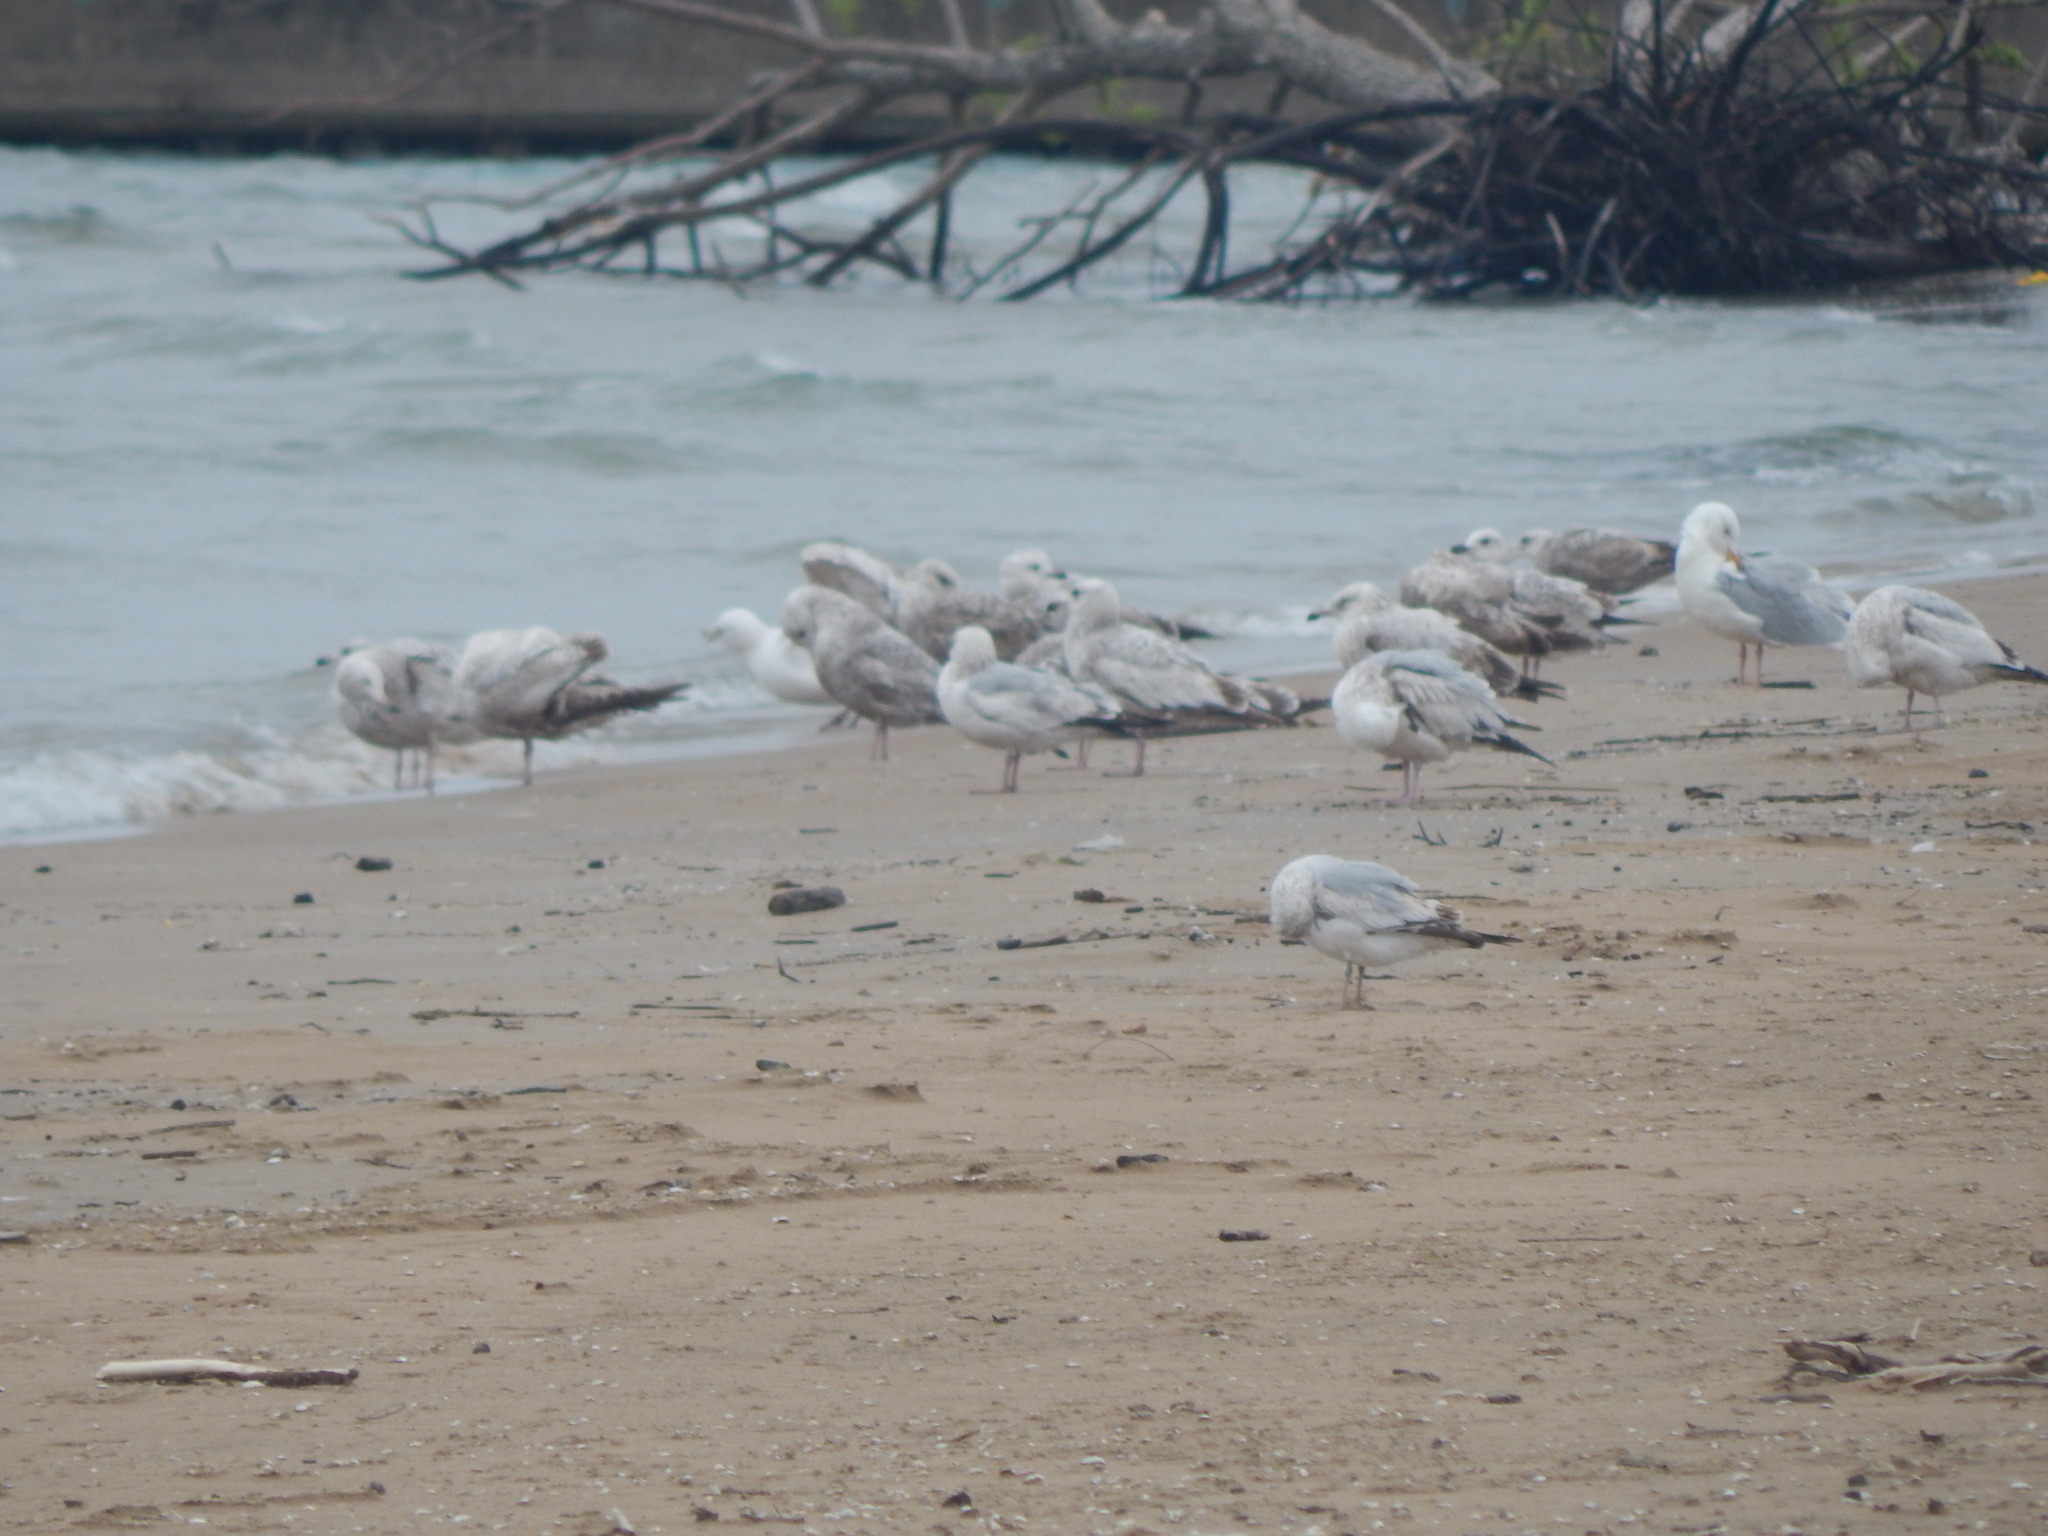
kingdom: Animalia
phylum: Chordata
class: Aves
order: Charadriiformes
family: Laridae
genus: Larus
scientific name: Larus argentatus
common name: Herring gull
